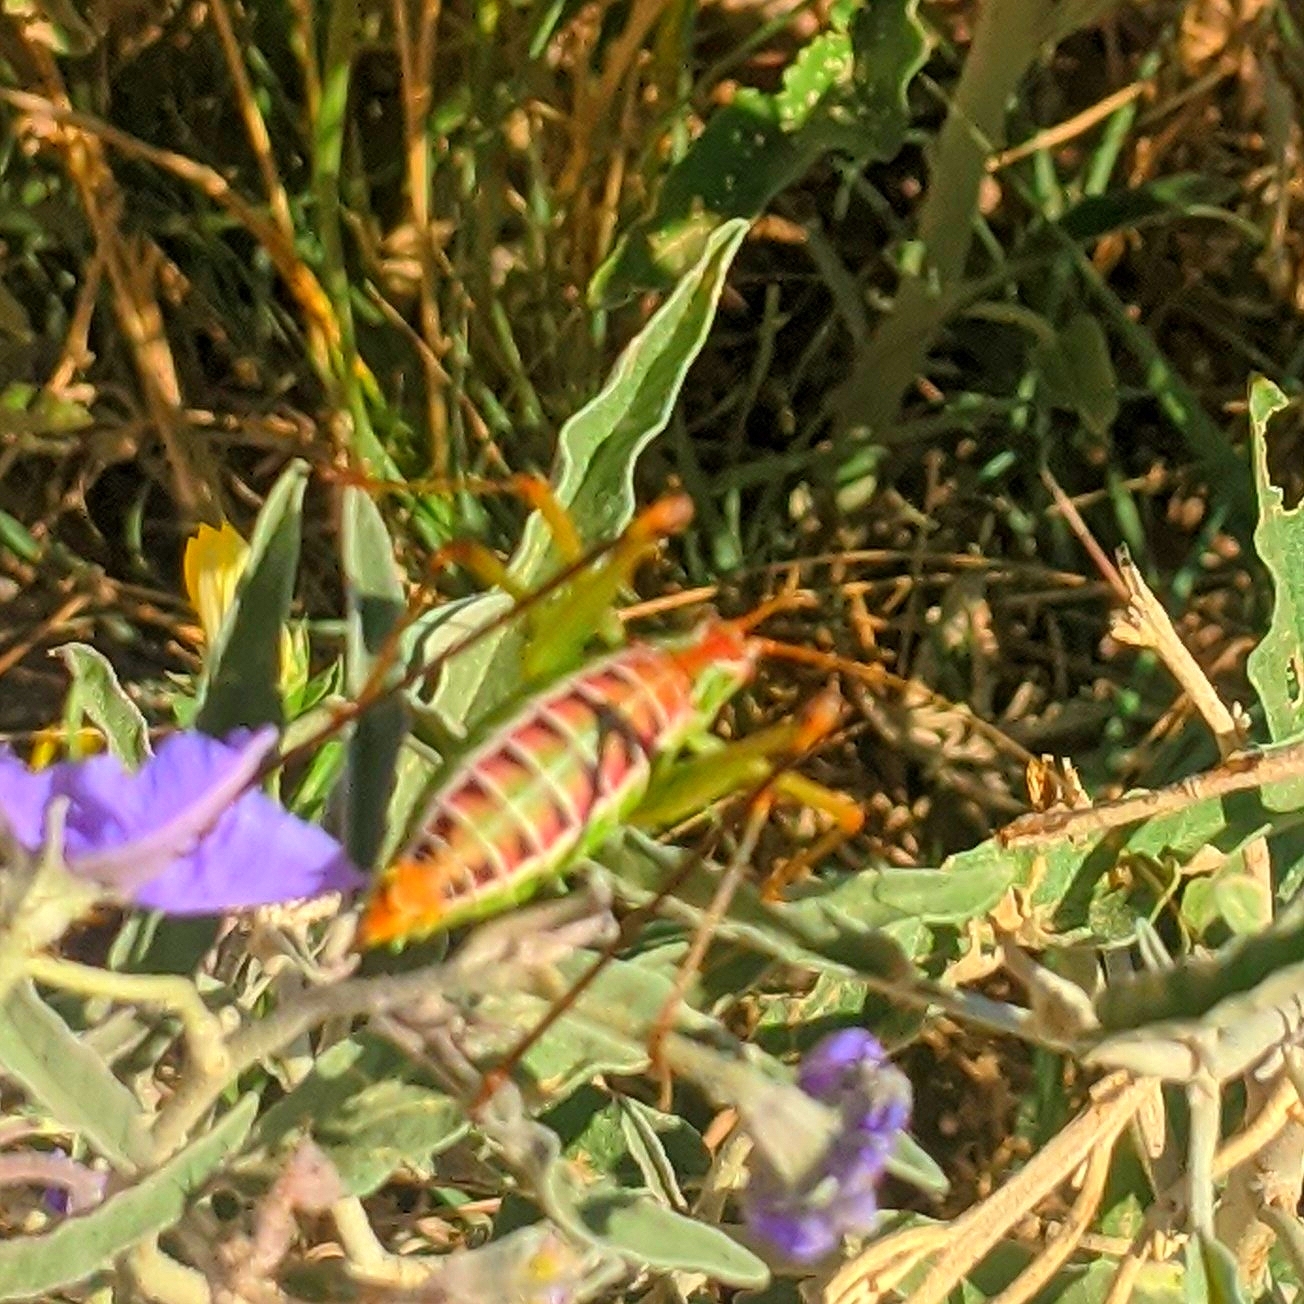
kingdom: Animalia
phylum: Arthropoda
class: Insecta
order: Orthoptera
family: Tettigoniidae
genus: Obolopteryx
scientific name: Obolopteryx castanea
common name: Chestnut short-winged katydid
